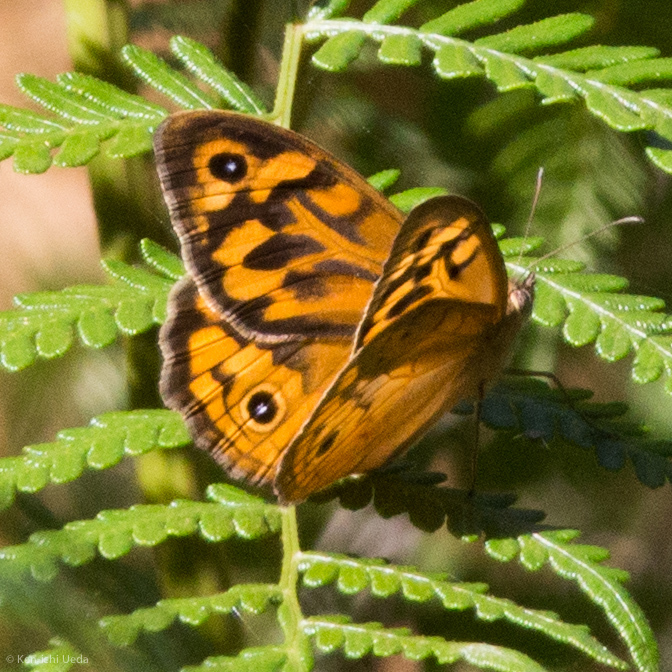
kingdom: Animalia
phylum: Arthropoda
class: Insecta
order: Lepidoptera
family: Nymphalidae
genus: Heteronympha
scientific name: Heteronympha merope
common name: Common brown
